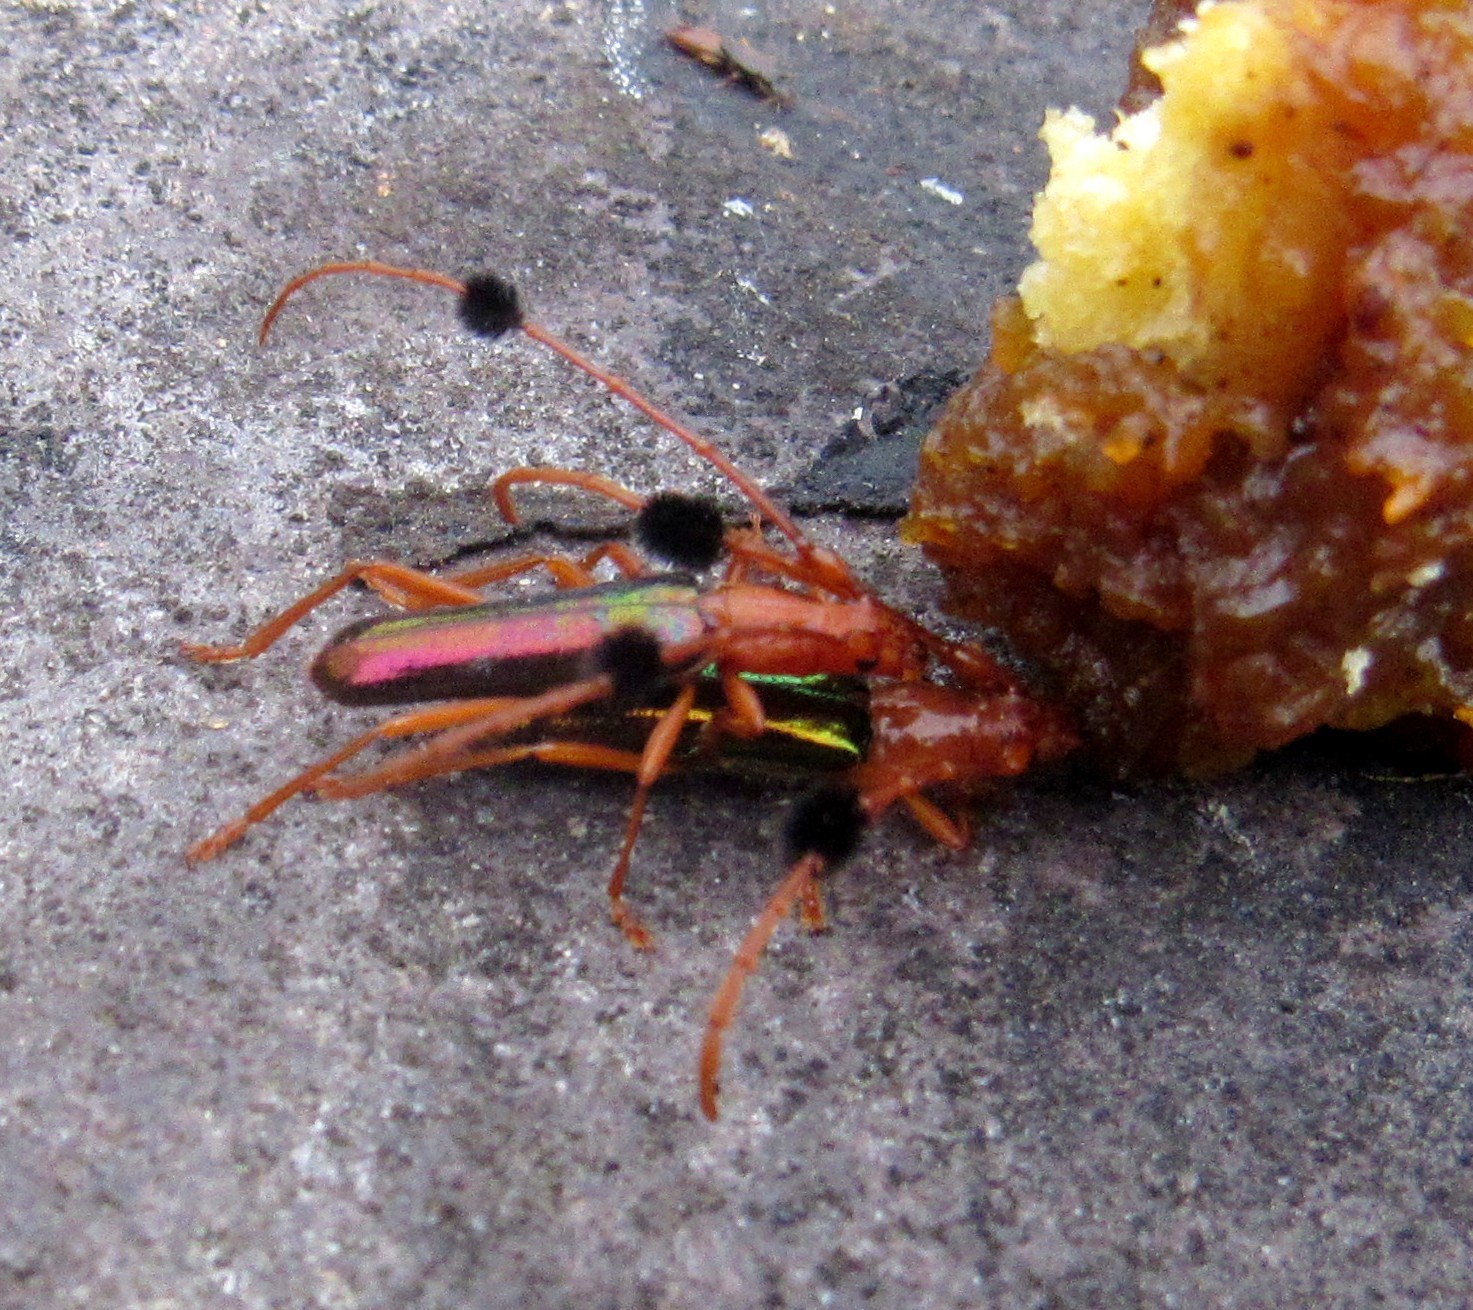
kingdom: Animalia
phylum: Arthropoda
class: Insecta
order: Coleoptera
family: Cerambycidae
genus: Compsocerus
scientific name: Compsocerus violaceus
